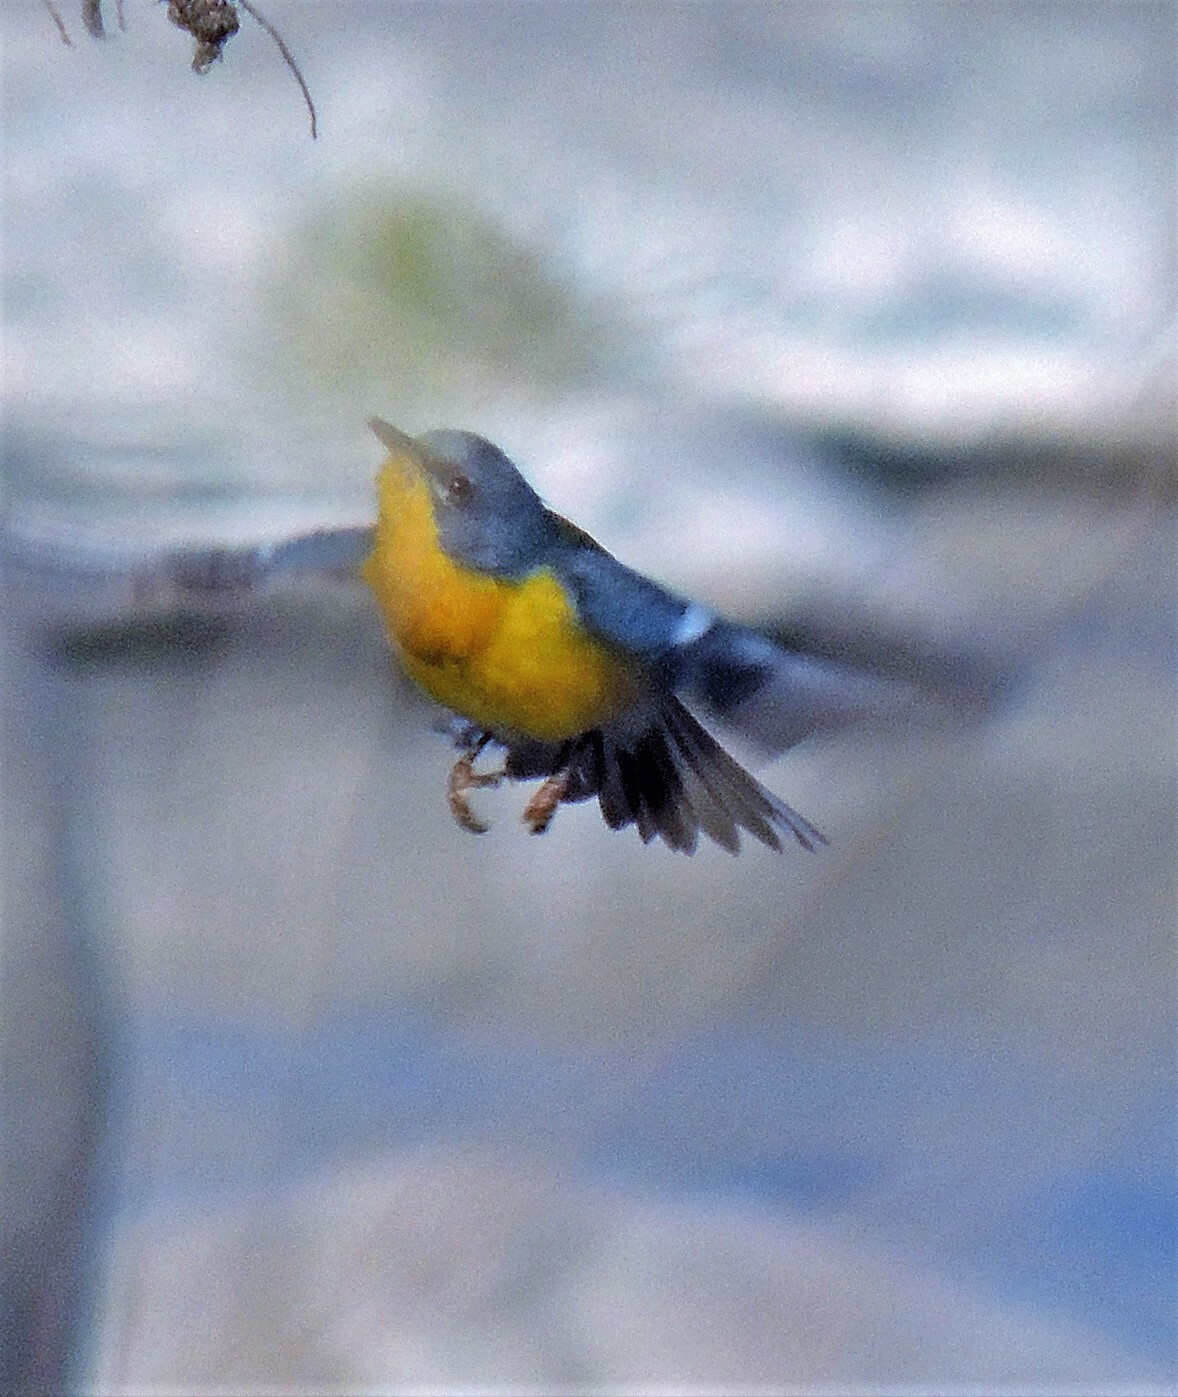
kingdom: Animalia
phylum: Chordata
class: Aves
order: Passeriformes
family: Parulidae
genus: Setophaga
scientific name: Setophaga pitiayumi
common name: Tropical parula
